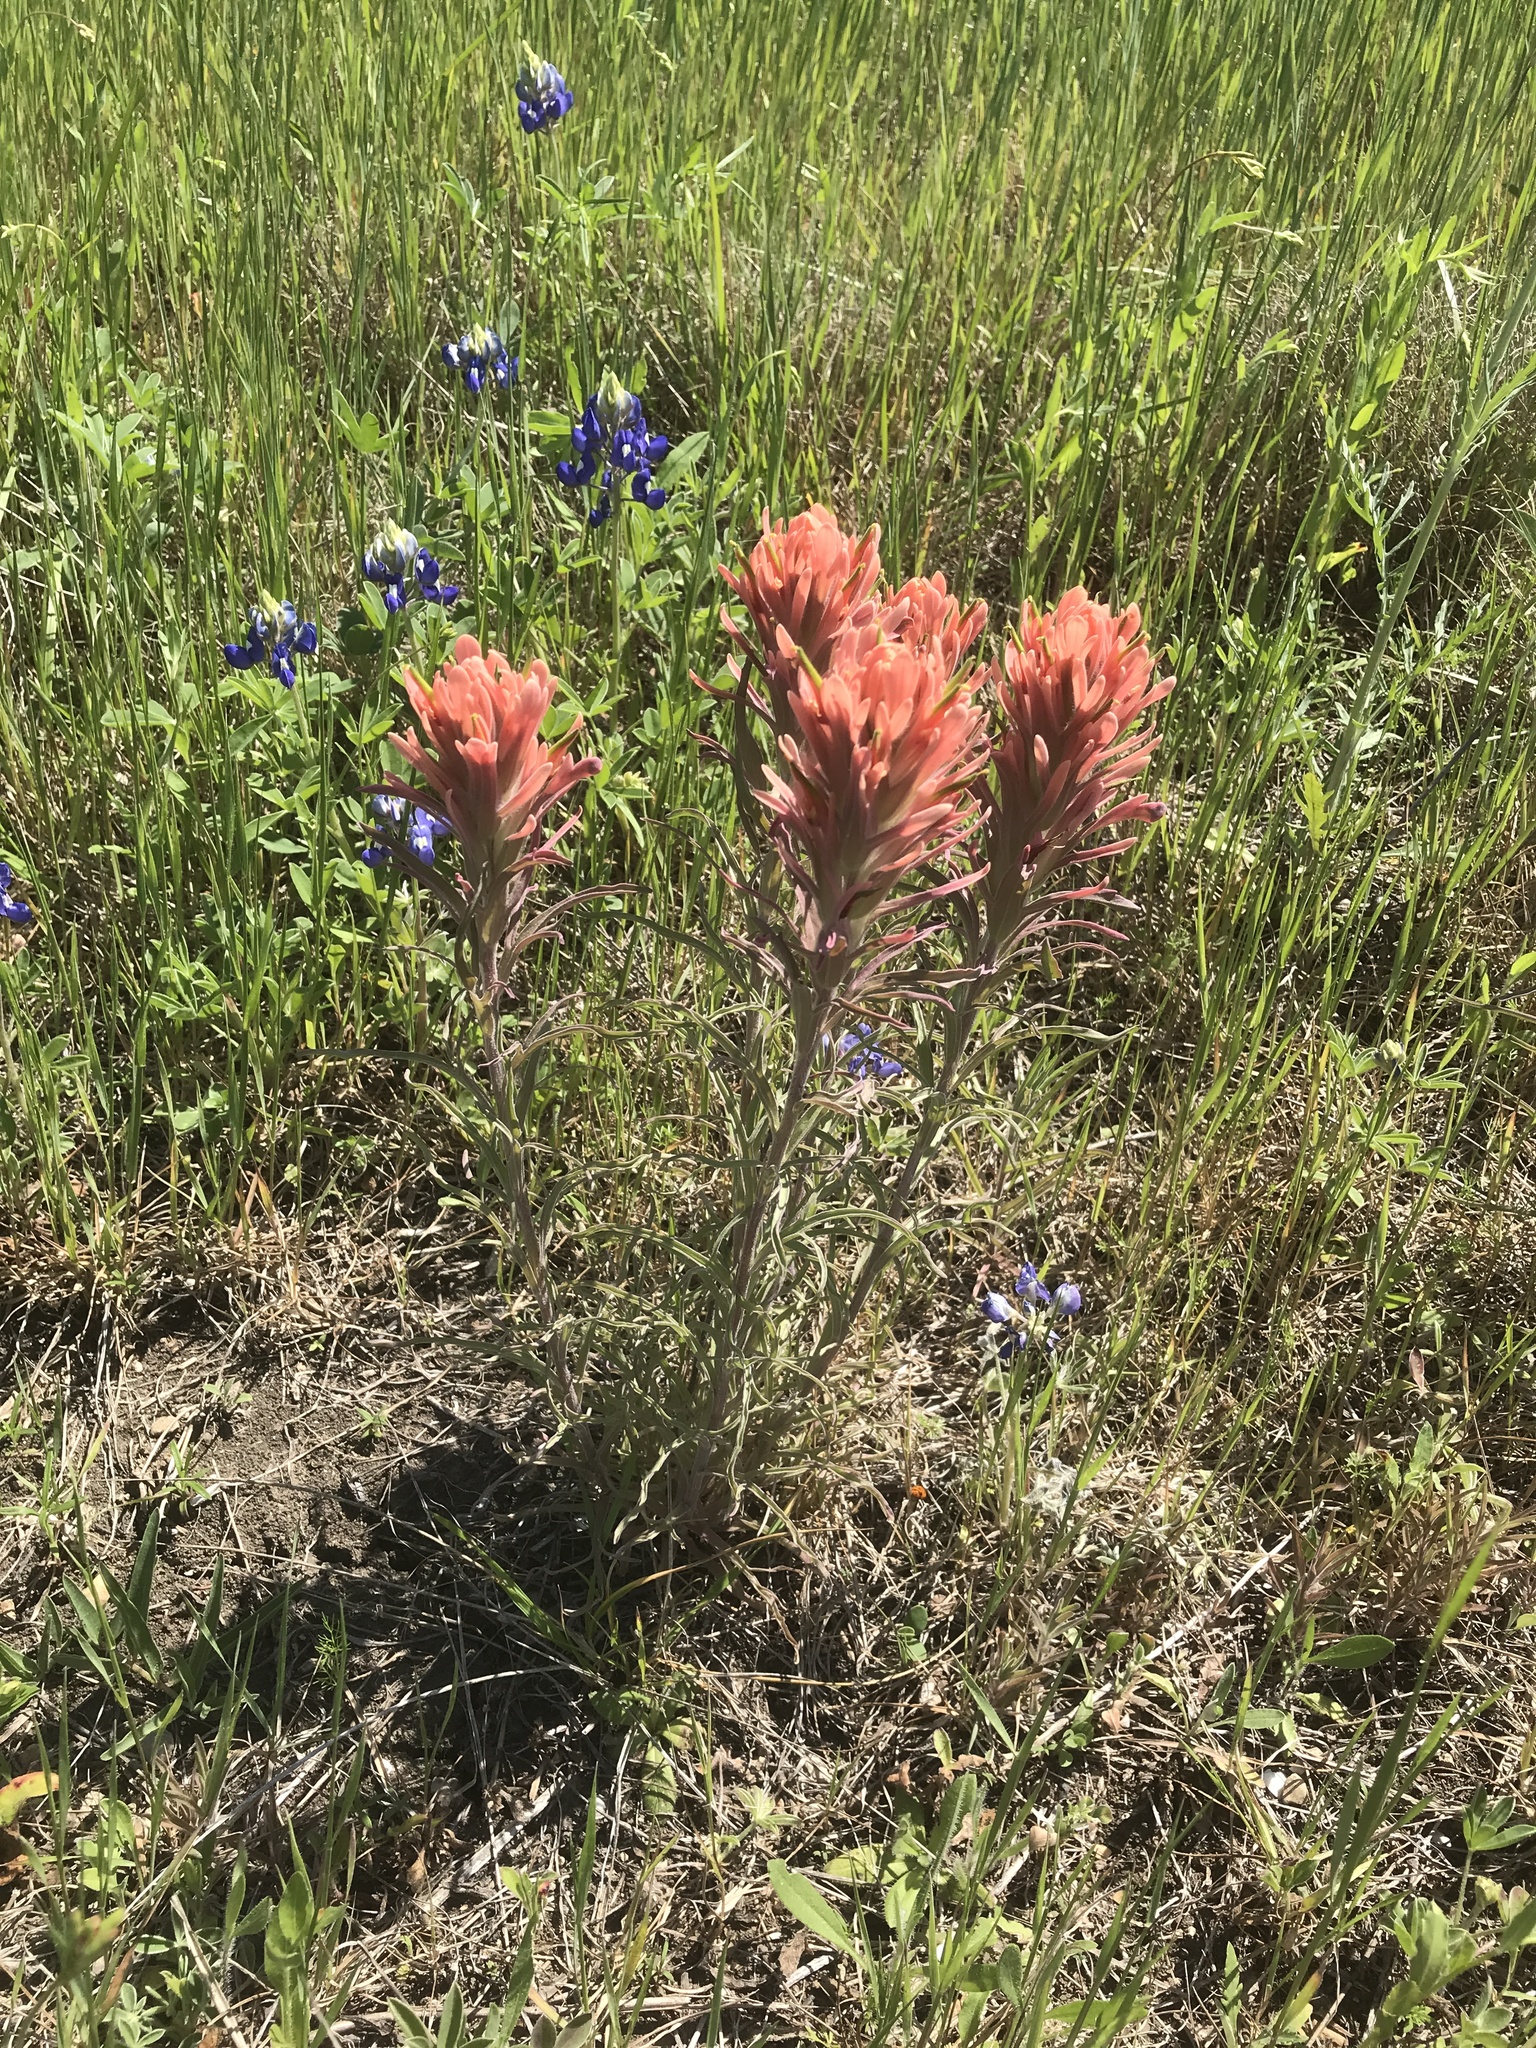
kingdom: Plantae
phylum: Tracheophyta
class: Magnoliopsida
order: Lamiales
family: Orobanchaceae
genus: Castilleja
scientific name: Castilleja lindheimeri
